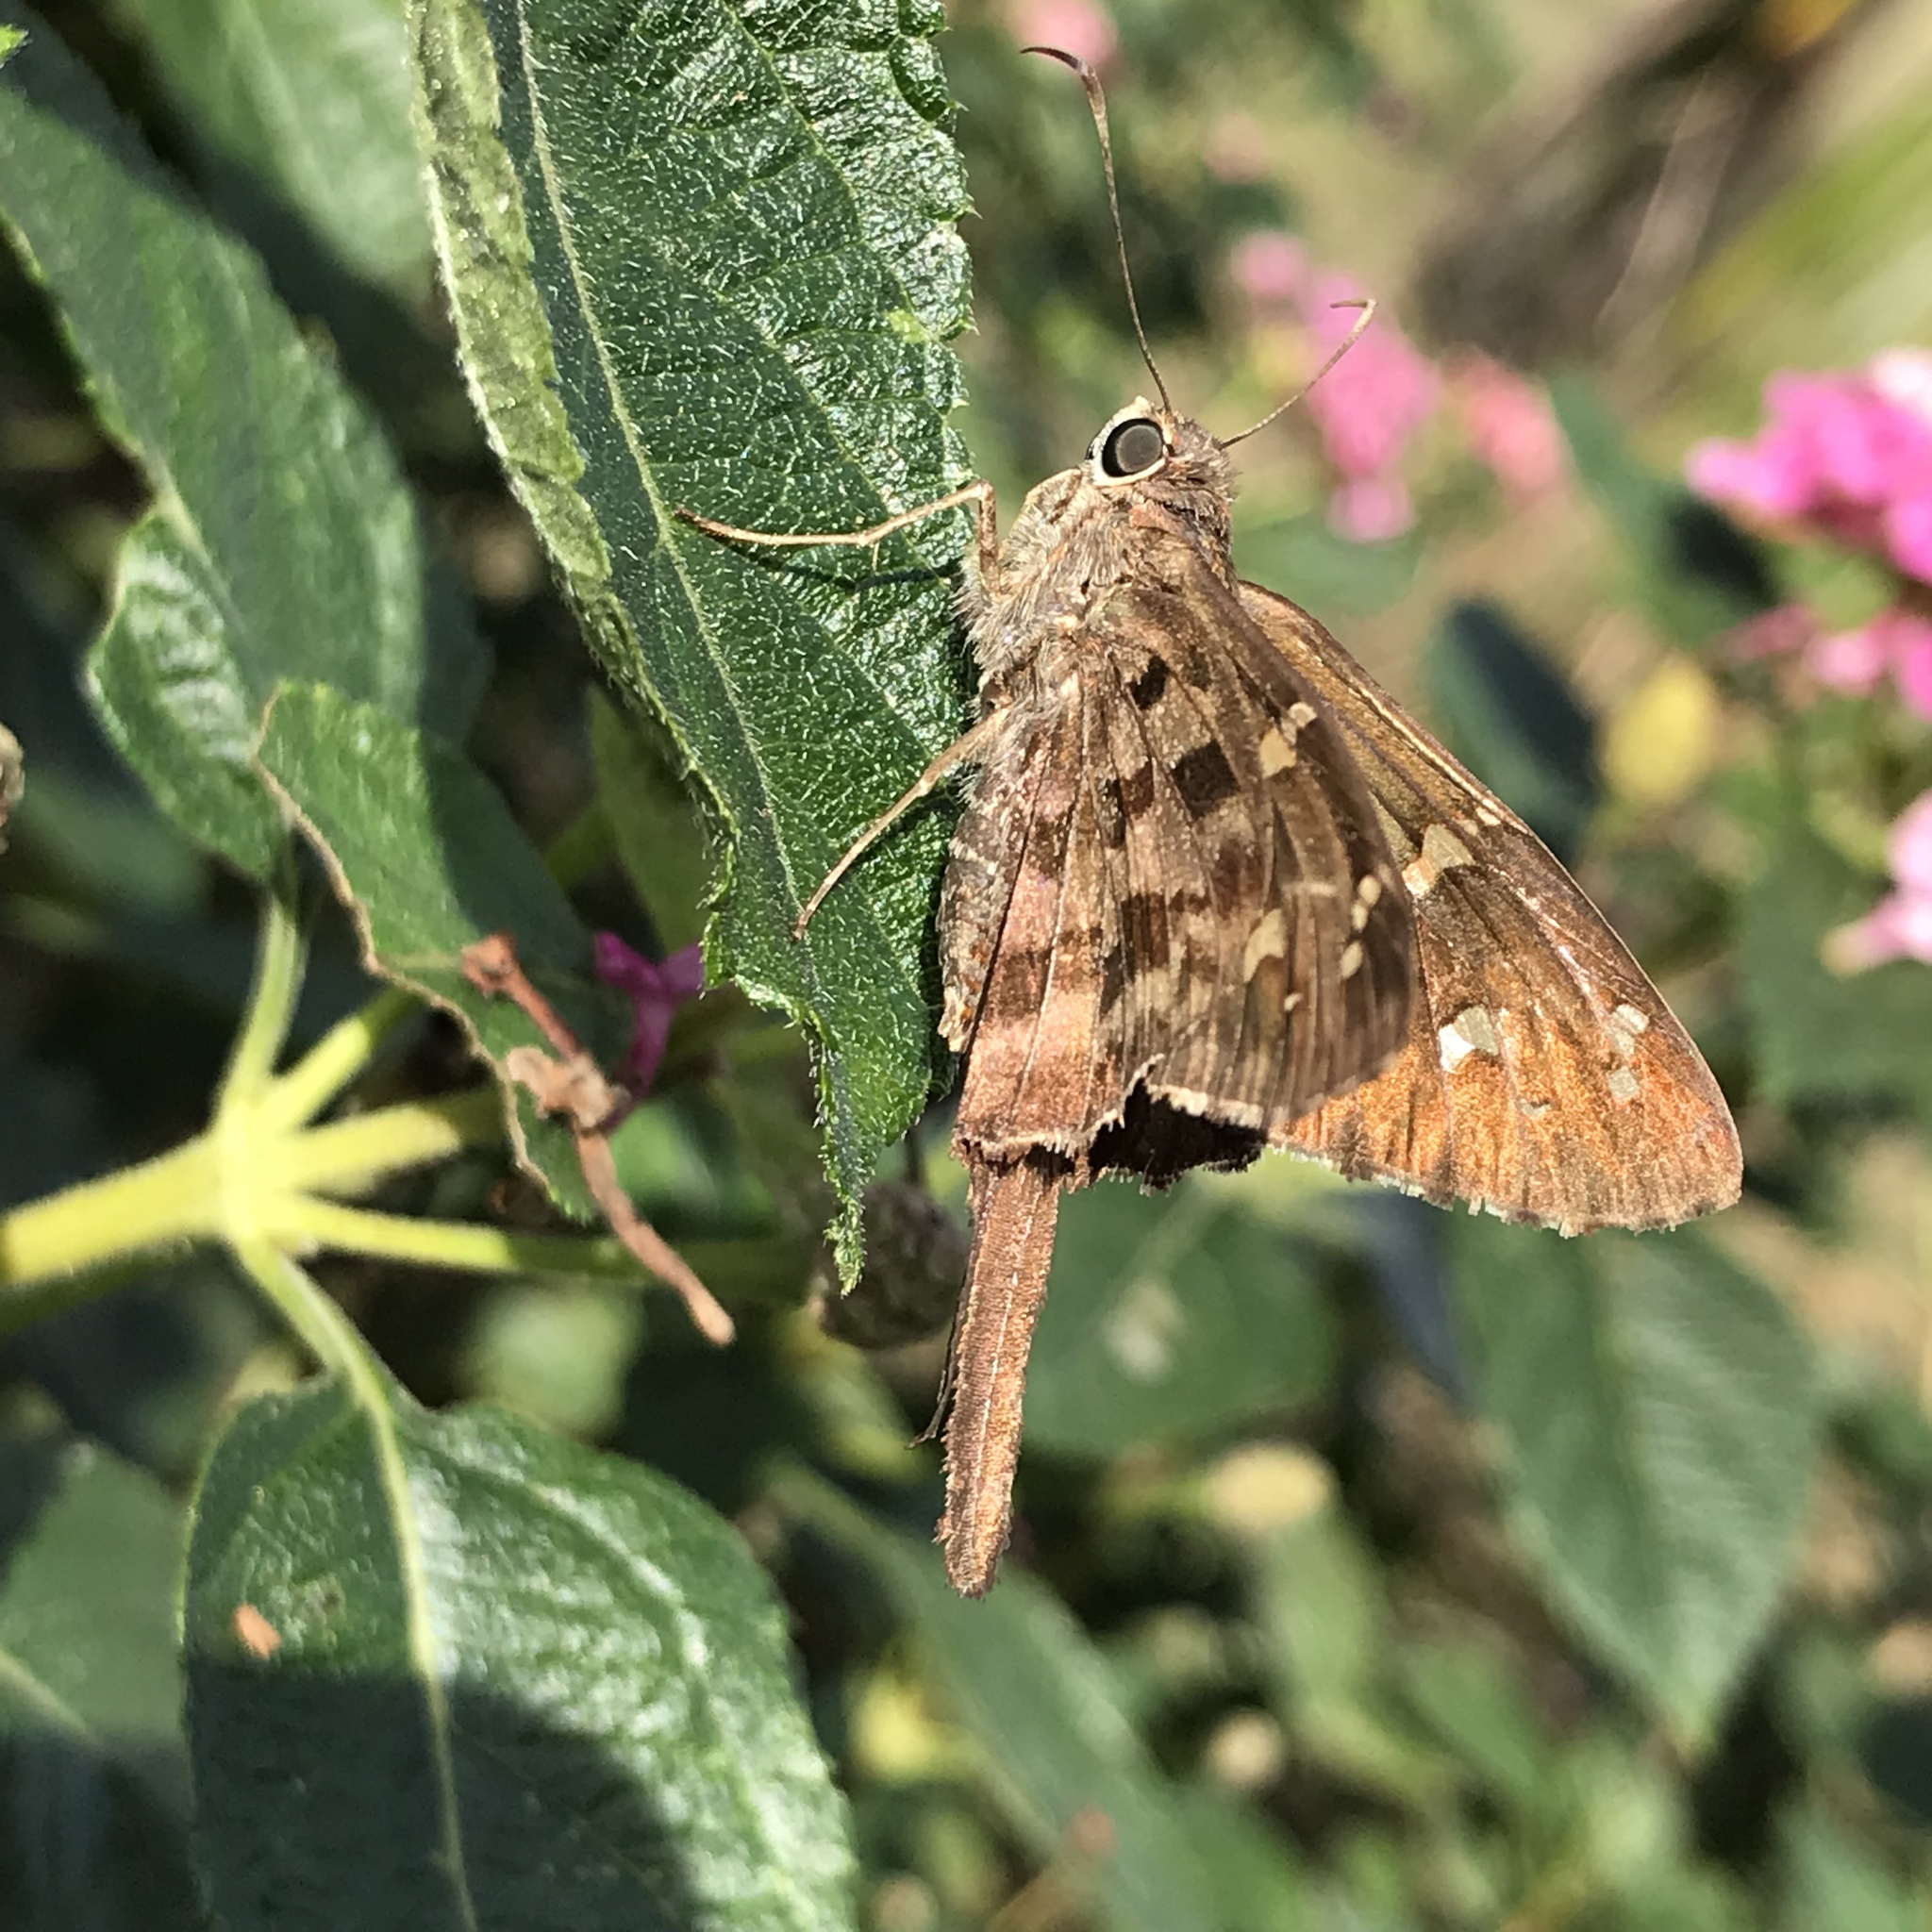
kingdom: Animalia
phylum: Arthropoda
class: Insecta
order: Lepidoptera
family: Hesperiidae
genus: Thorybes
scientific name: Thorybes
